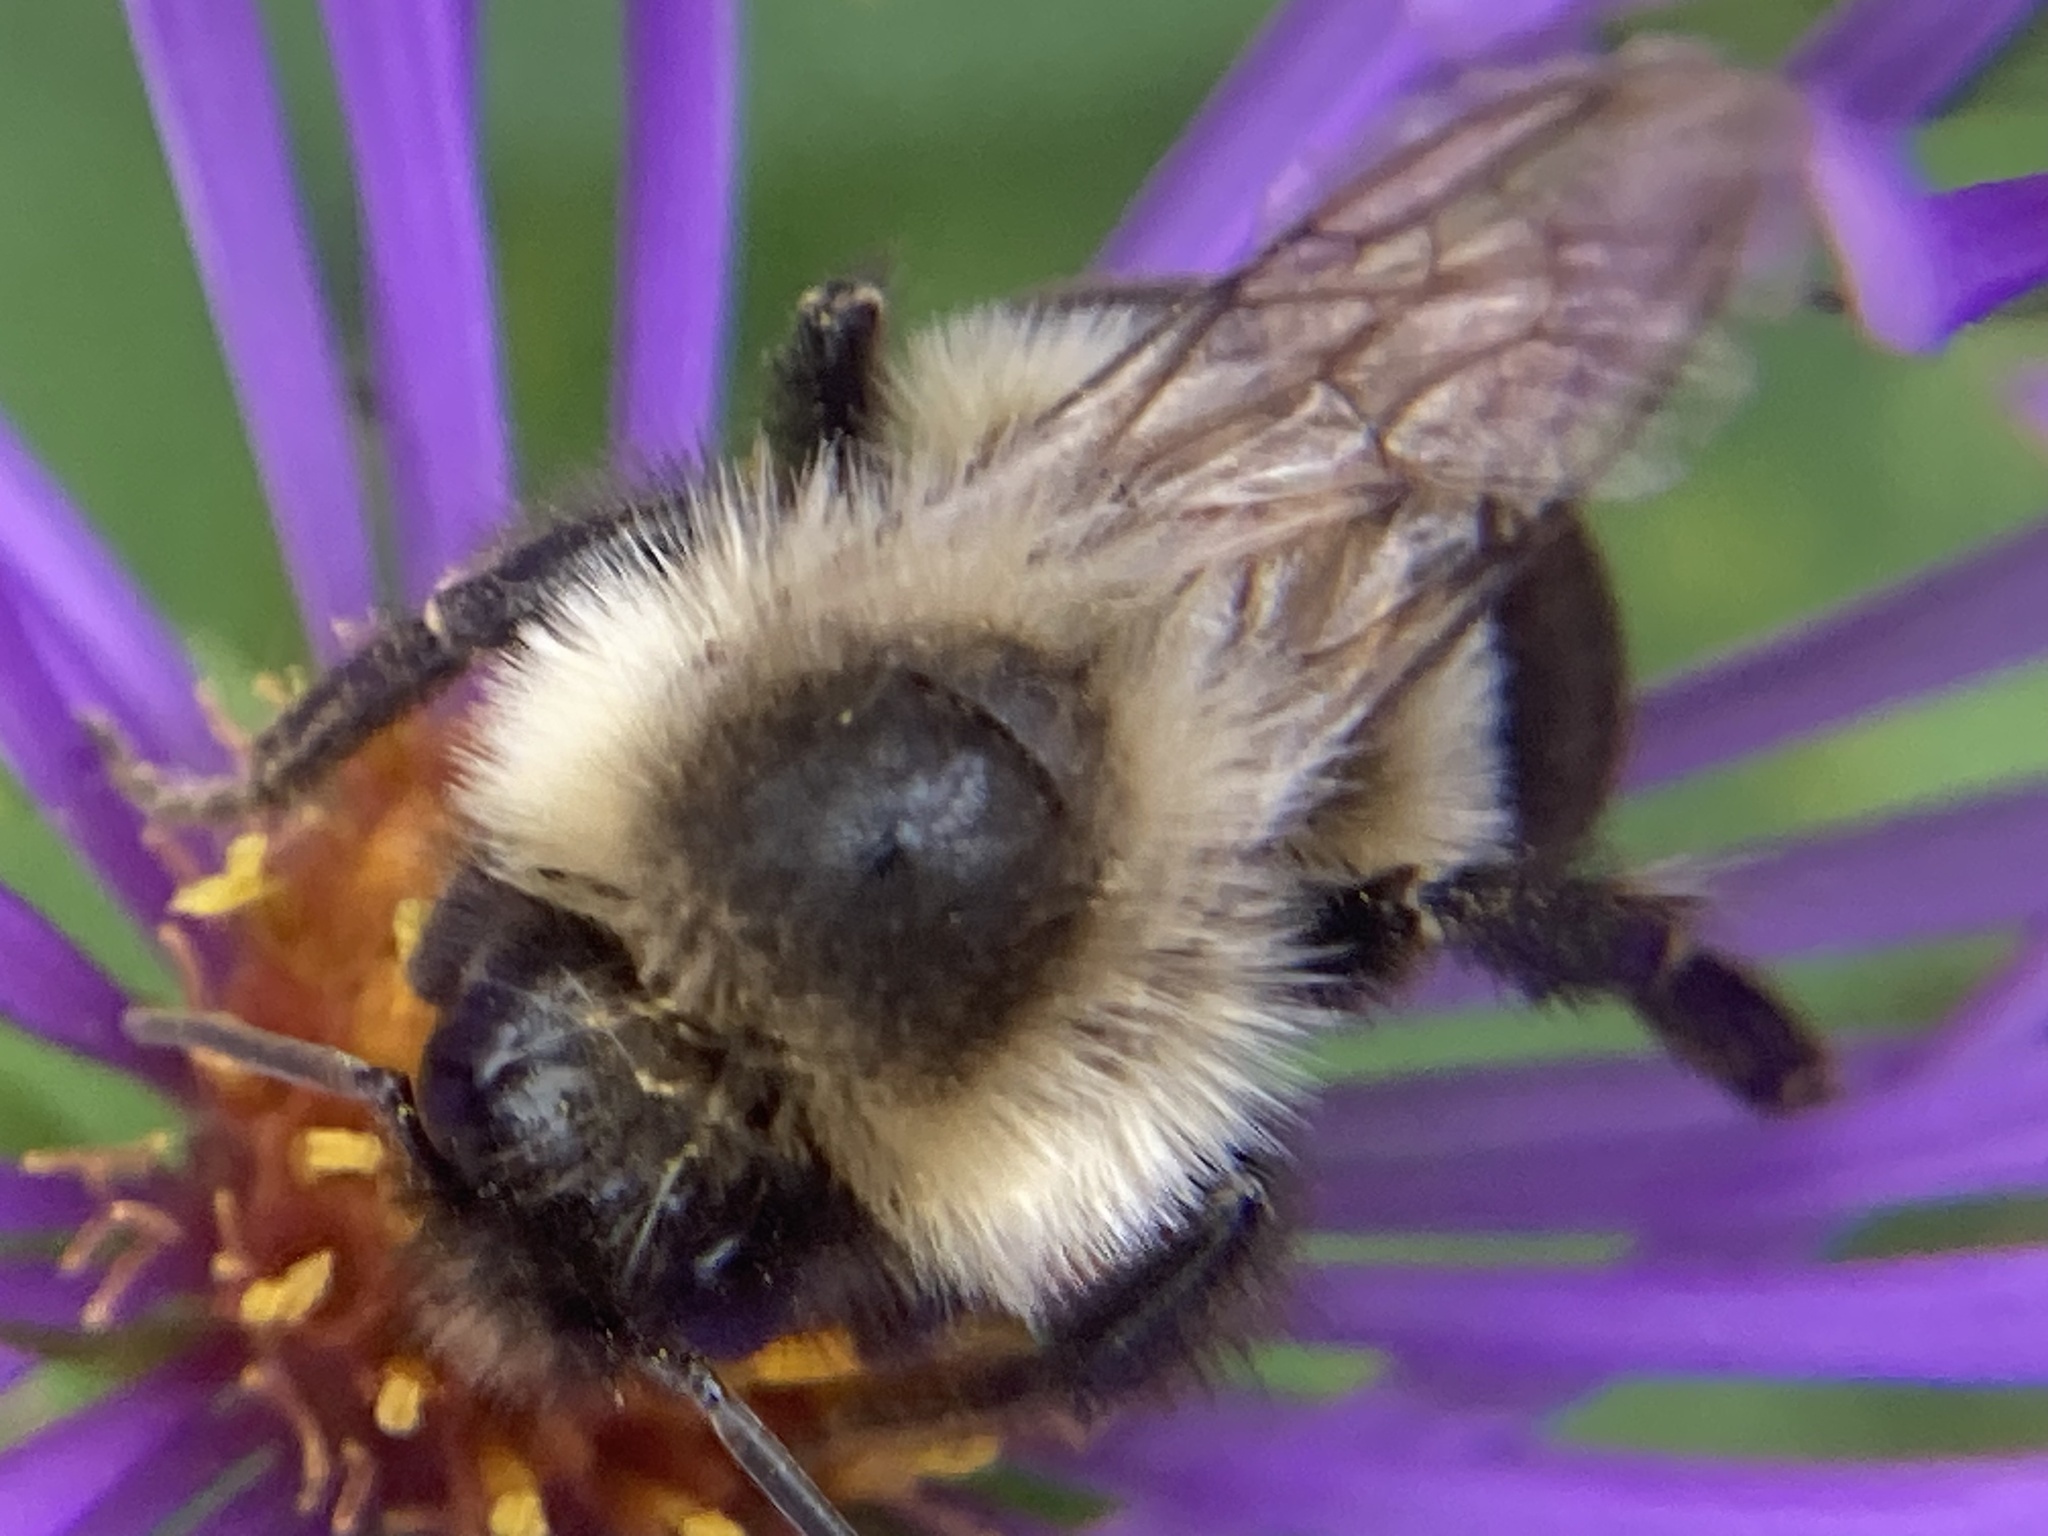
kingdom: Animalia
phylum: Arthropoda
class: Insecta
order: Hymenoptera
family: Apidae
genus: Bombus
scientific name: Bombus impatiens
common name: Common eastern bumble bee
